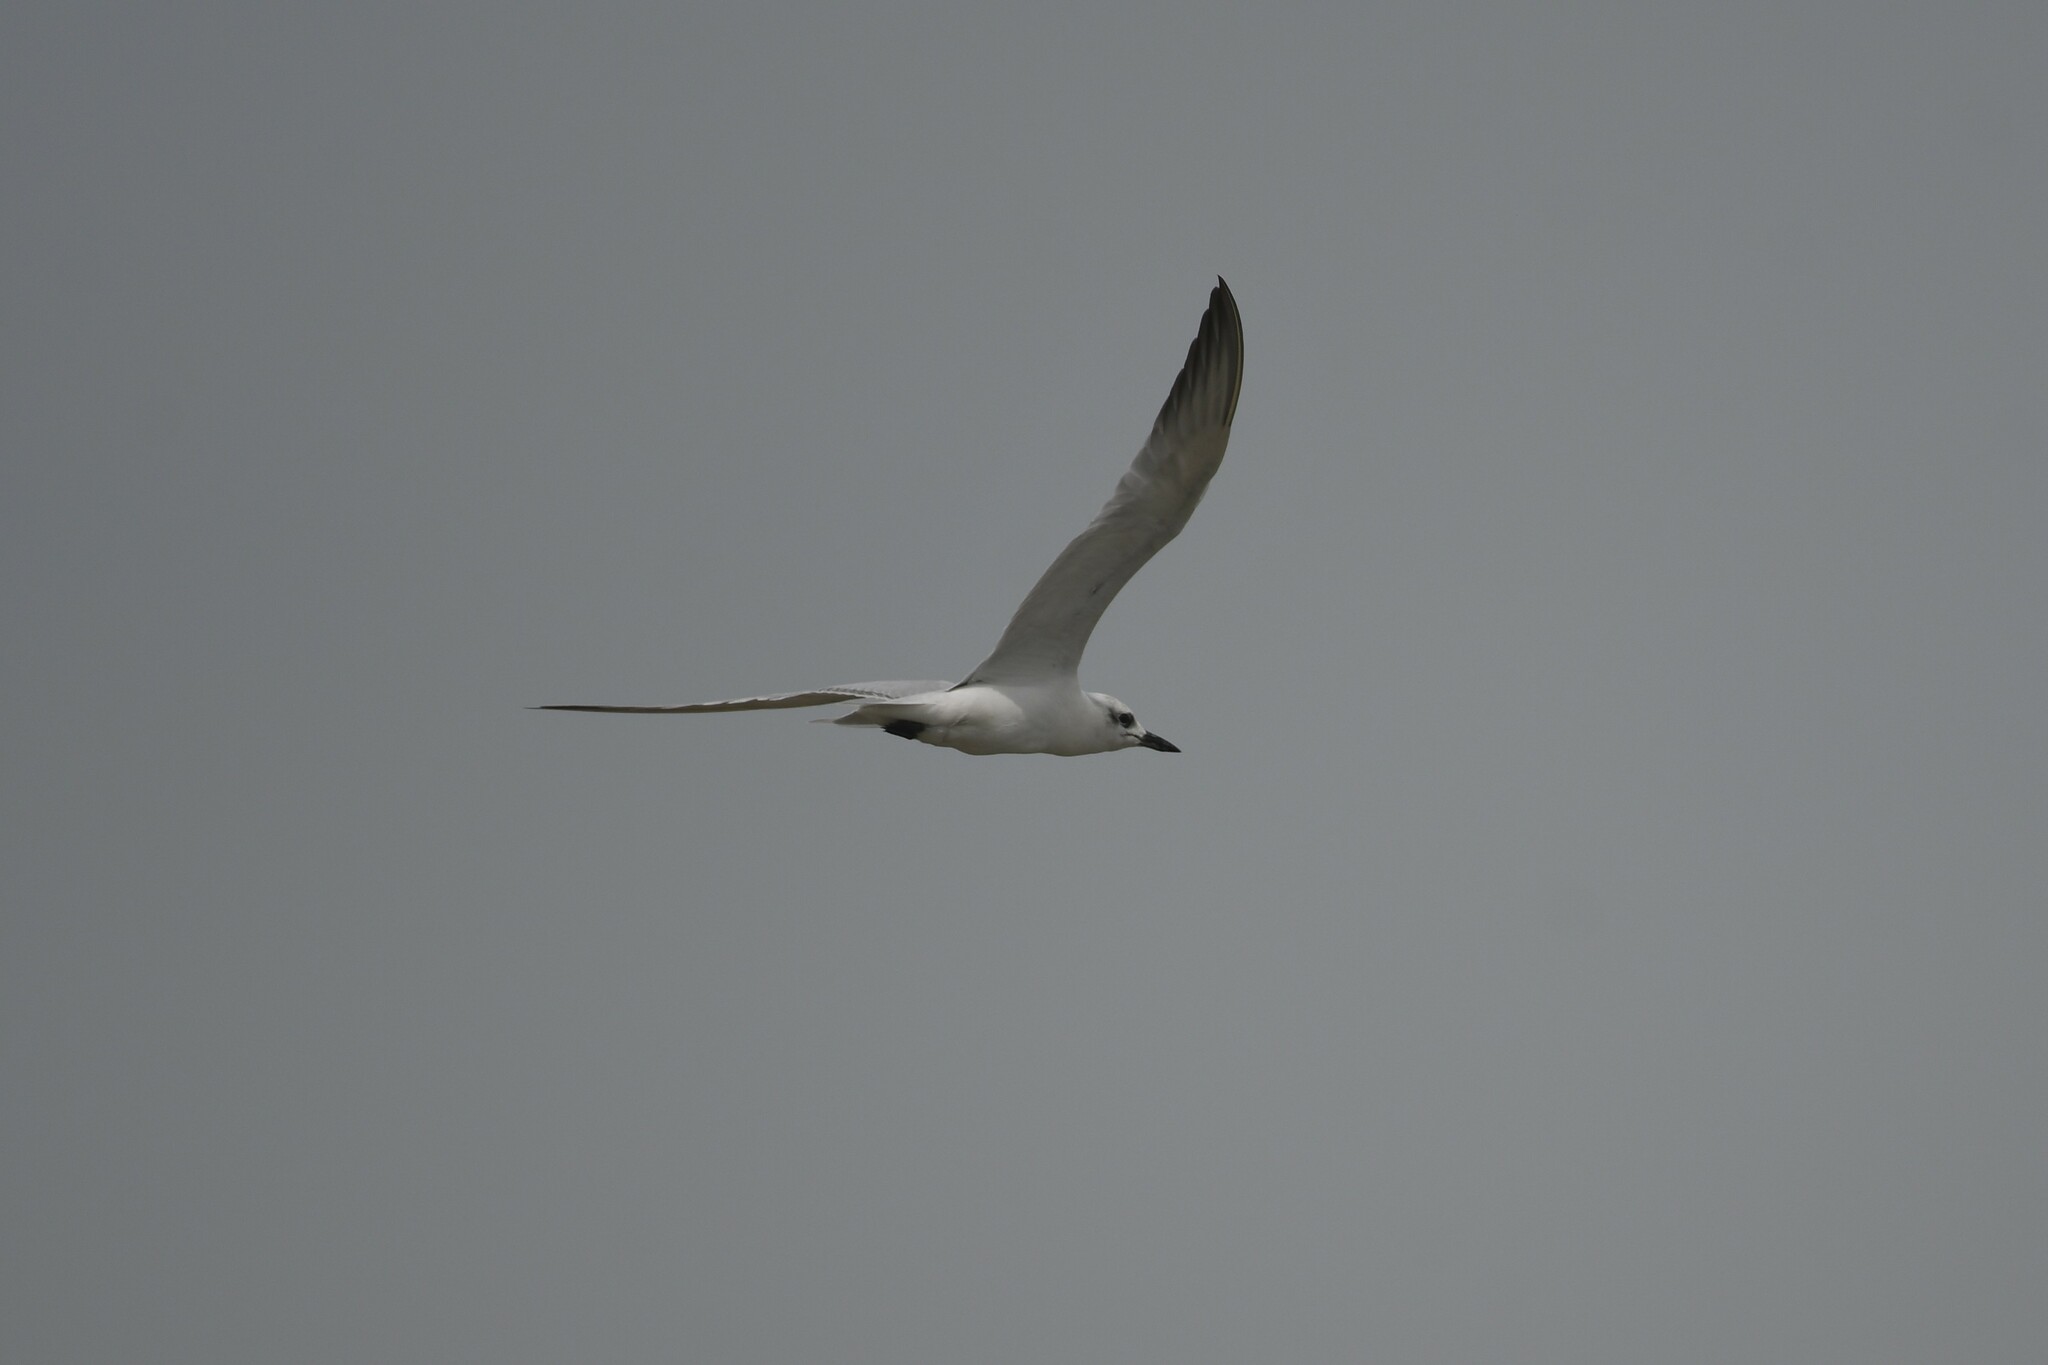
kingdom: Animalia
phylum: Chordata
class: Aves
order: Charadriiformes
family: Laridae
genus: Gelochelidon
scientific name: Gelochelidon nilotica
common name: Gull-billed tern
